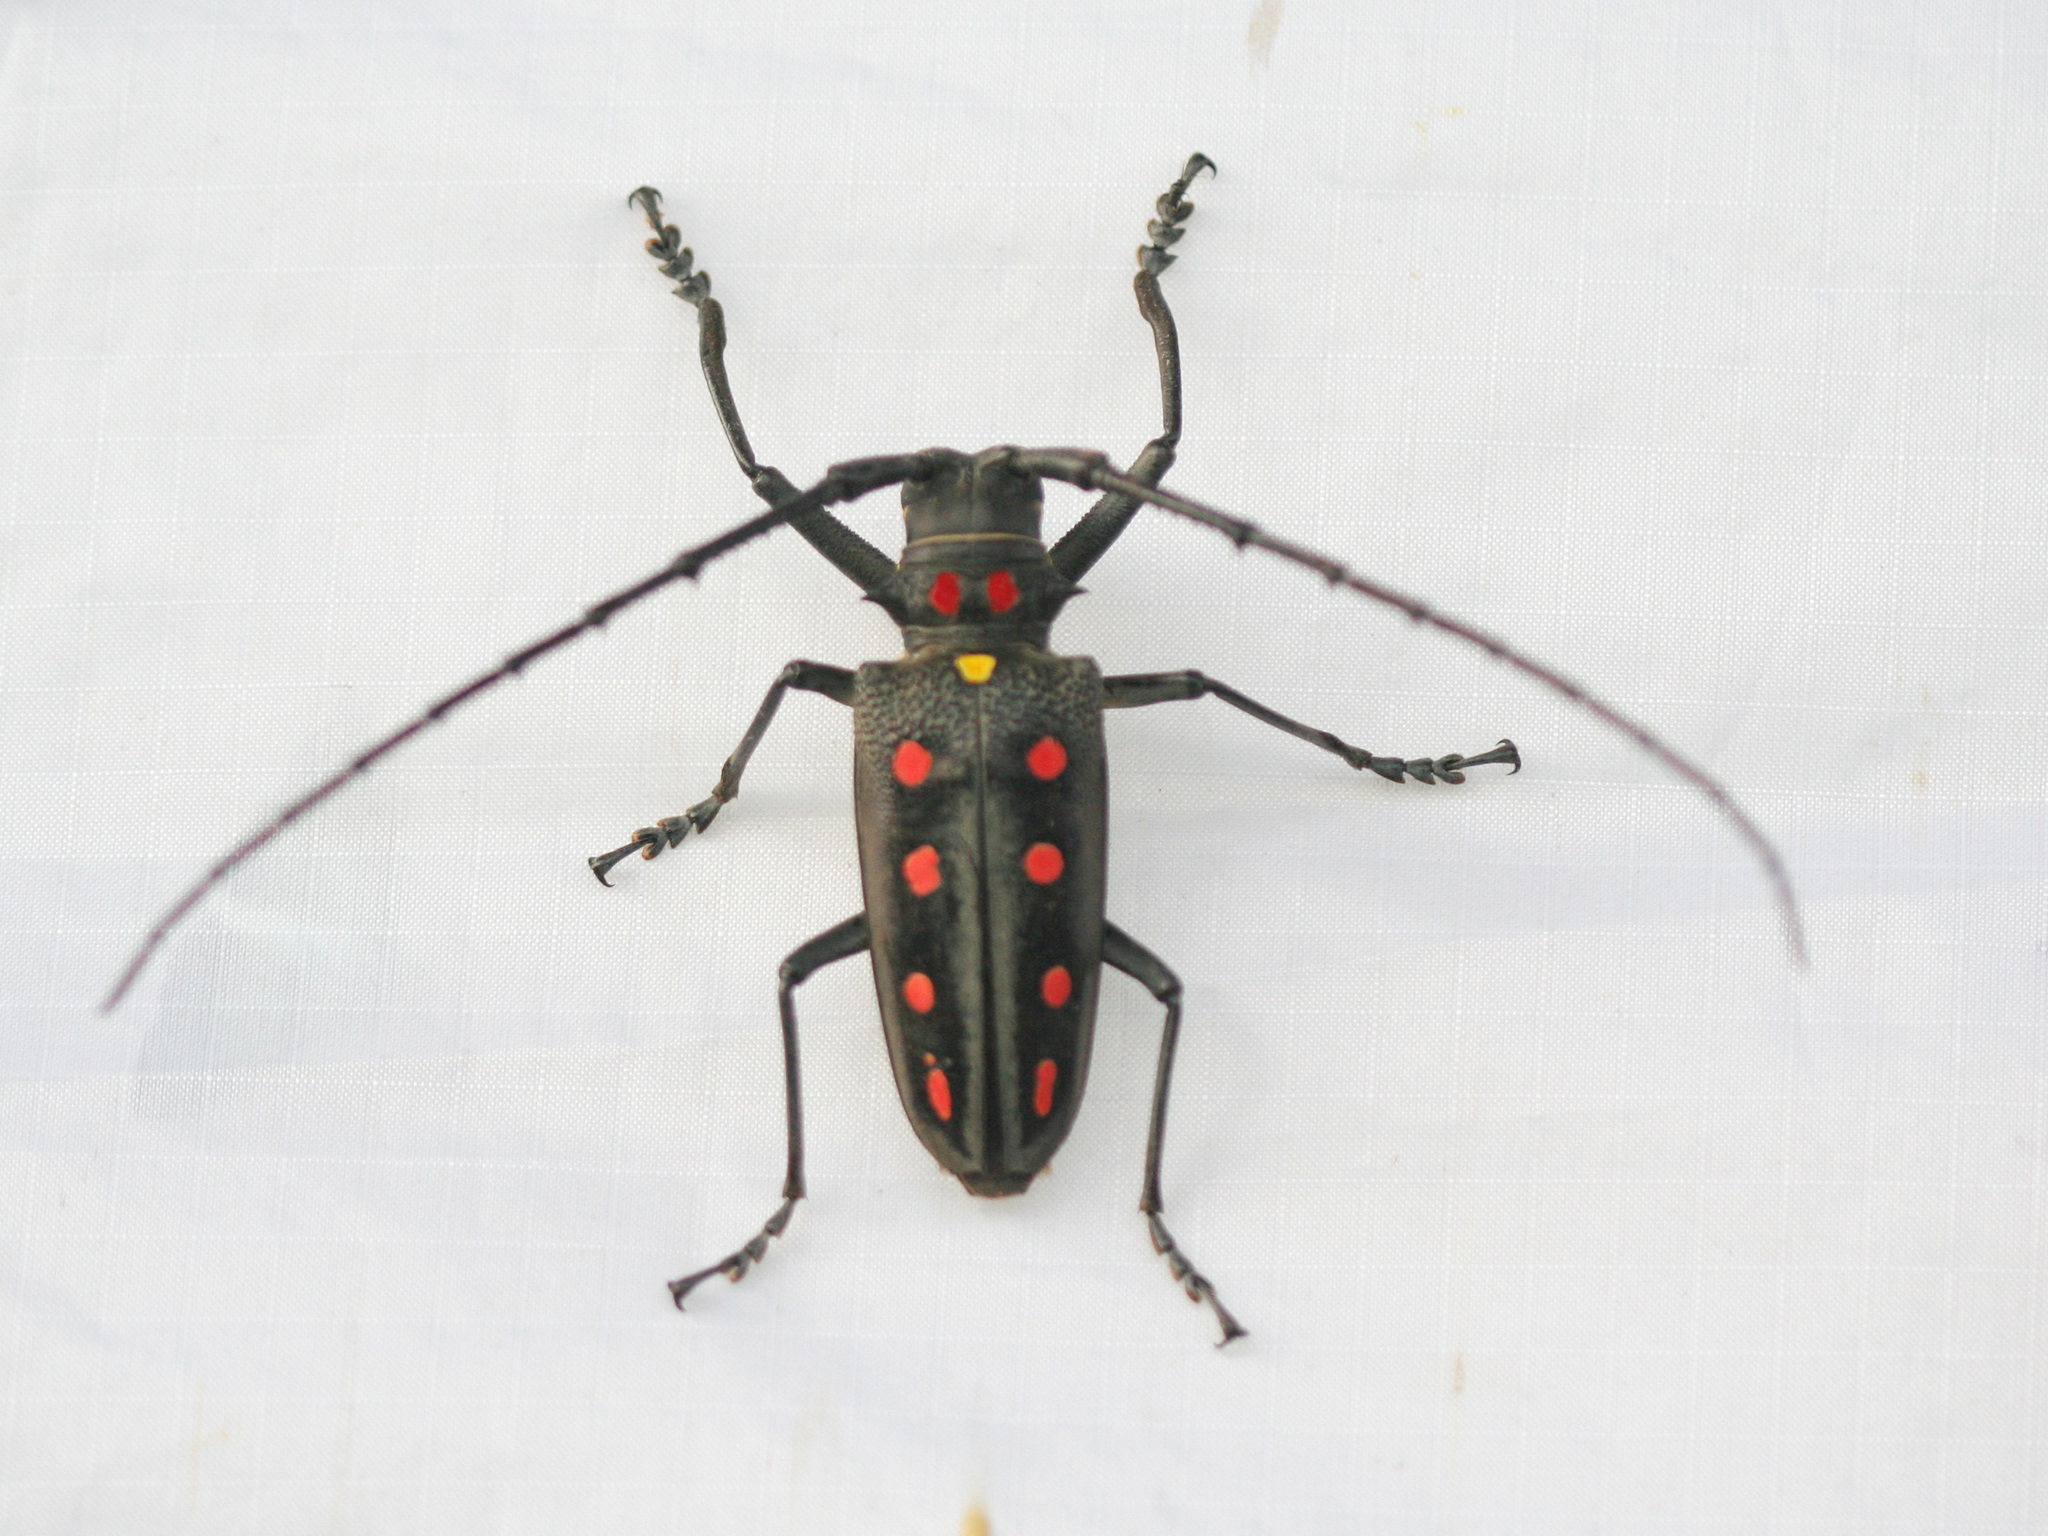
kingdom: Animalia
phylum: Arthropoda
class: Insecta
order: Coleoptera
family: Cerambycidae
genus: Batocera
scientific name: Batocera parryi
